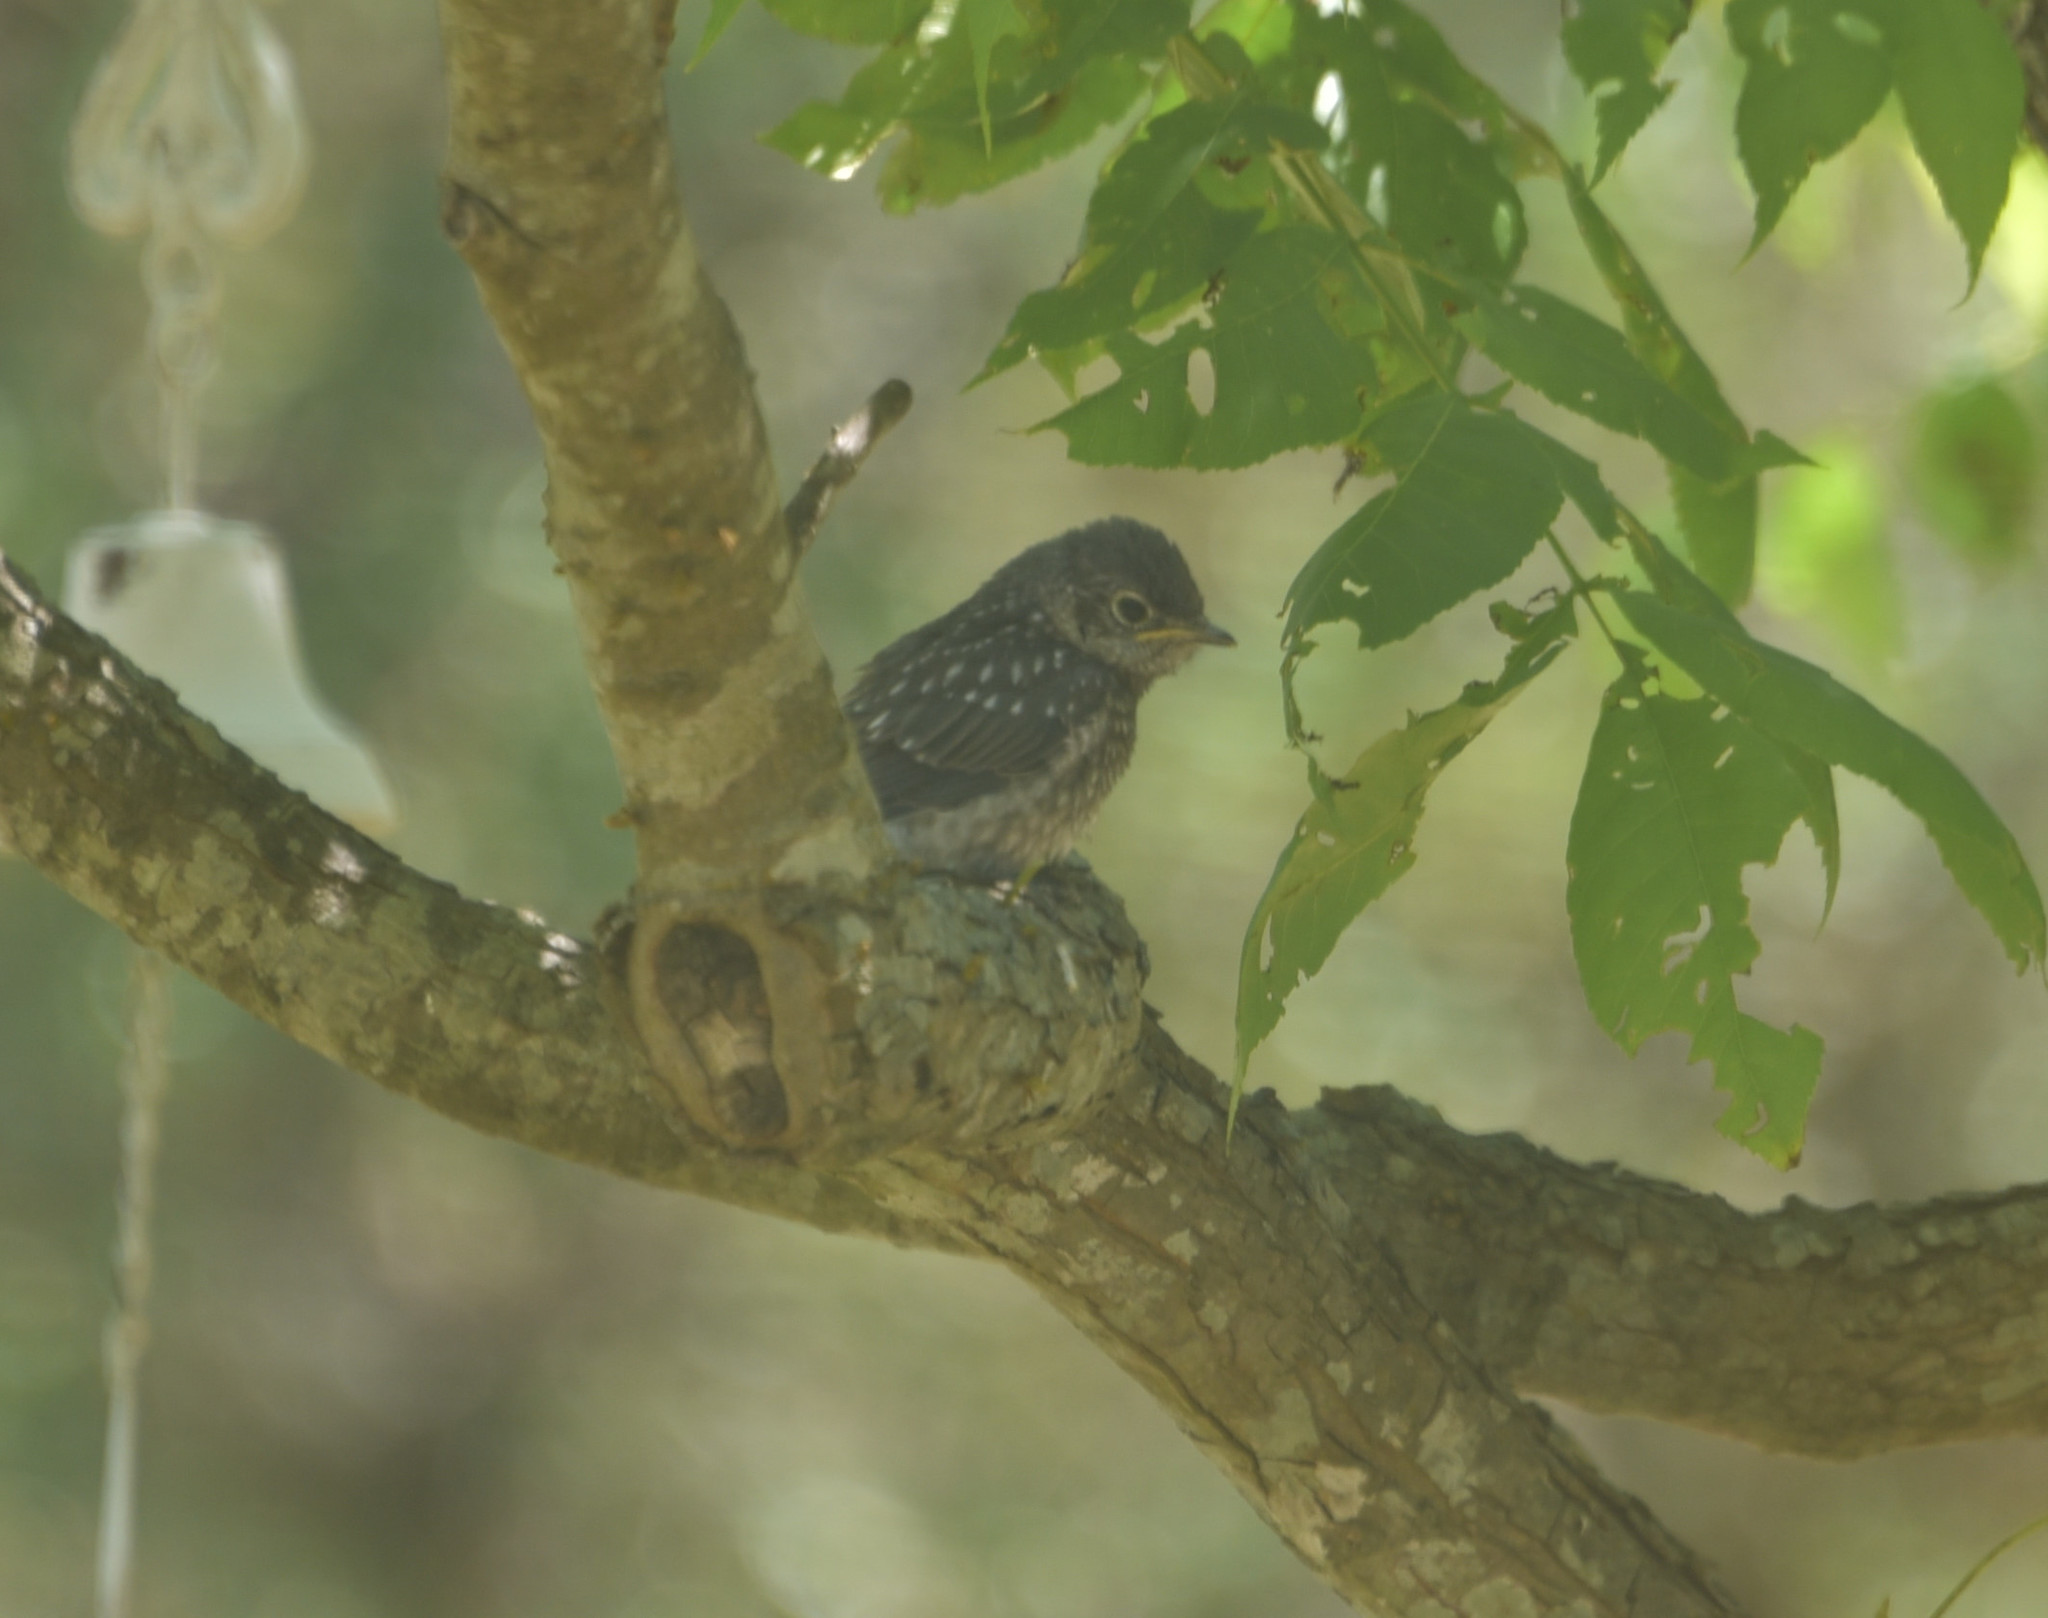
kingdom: Animalia
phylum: Chordata
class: Aves
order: Passeriformes
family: Turdidae
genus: Sialia
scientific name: Sialia sialis
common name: Eastern bluebird
